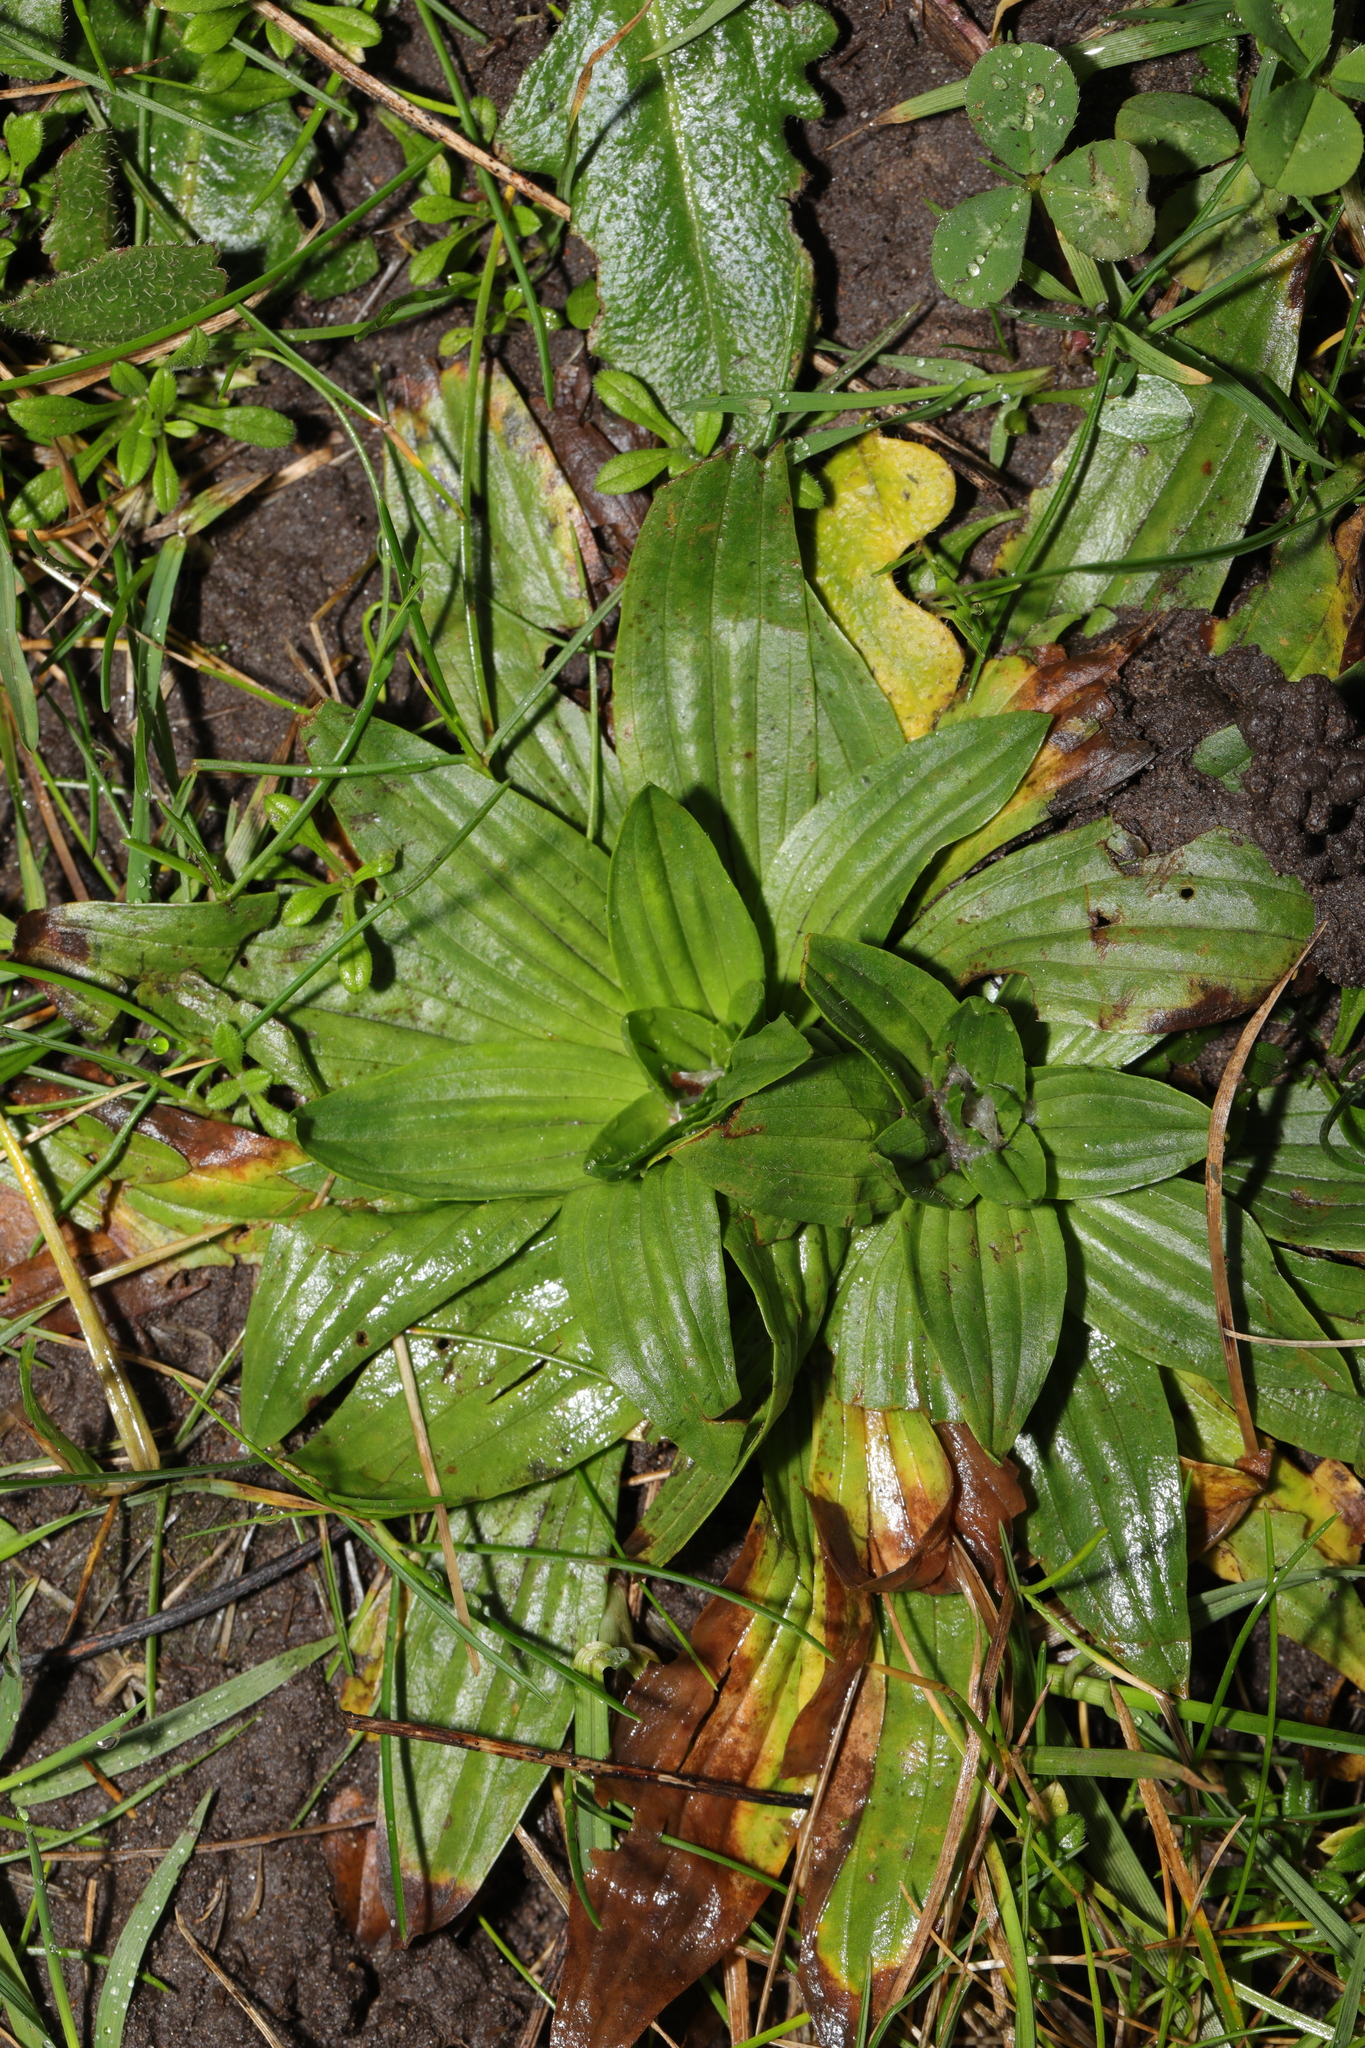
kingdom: Plantae
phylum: Tracheophyta
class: Magnoliopsida
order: Lamiales
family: Plantaginaceae
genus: Plantago
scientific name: Plantago lanceolata
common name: Ribwort plantain
